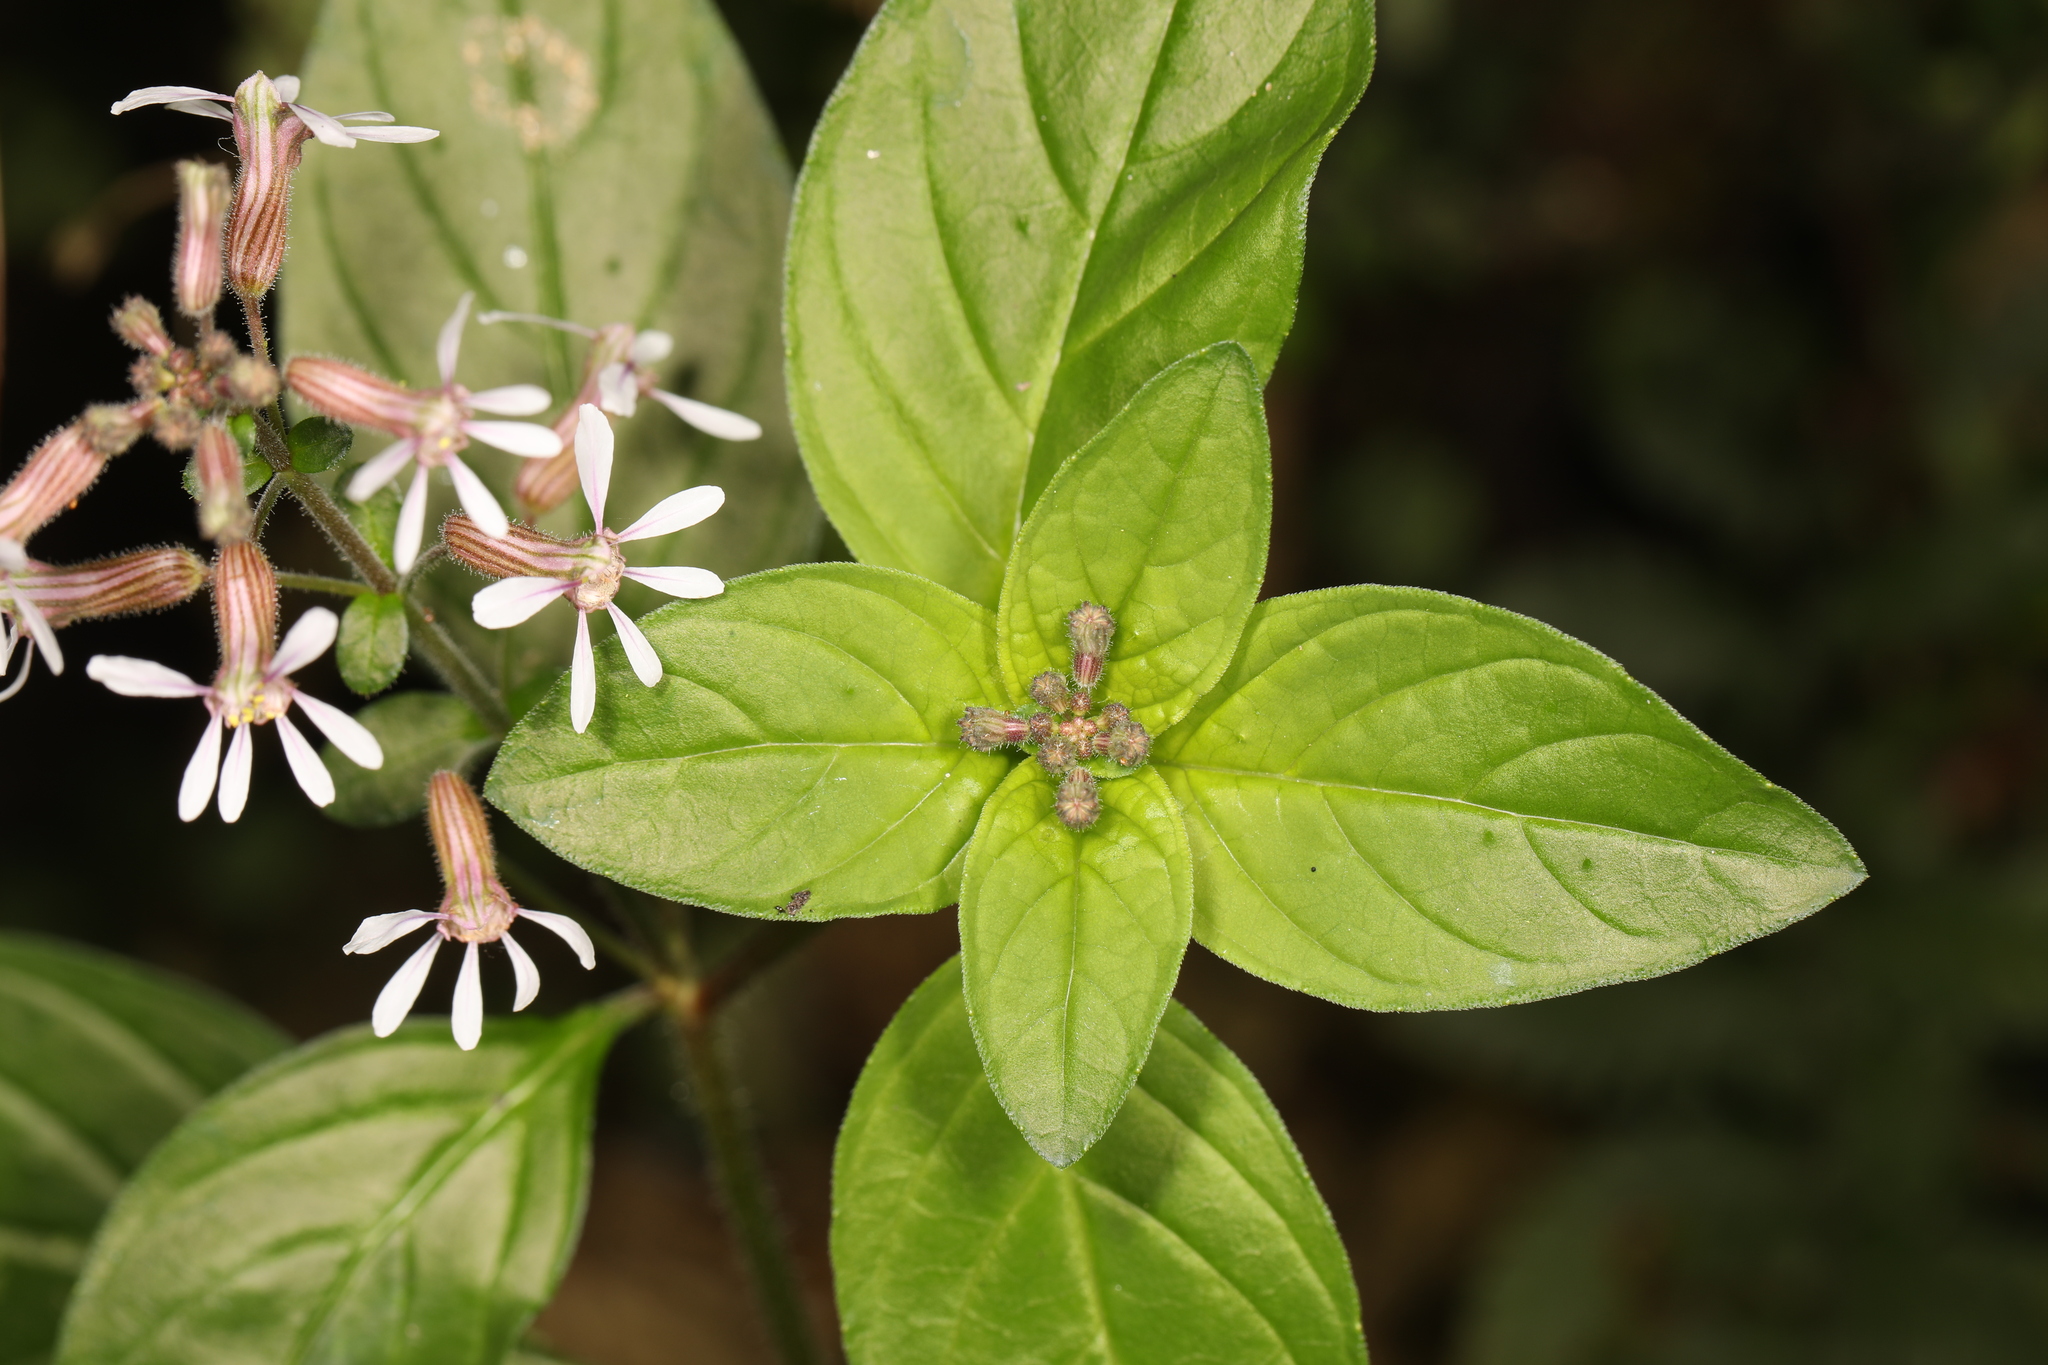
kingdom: Plantae
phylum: Tracheophyta
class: Magnoliopsida
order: Myrtales
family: Lythraceae
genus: Cuphea
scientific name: Cuphea racemosa
